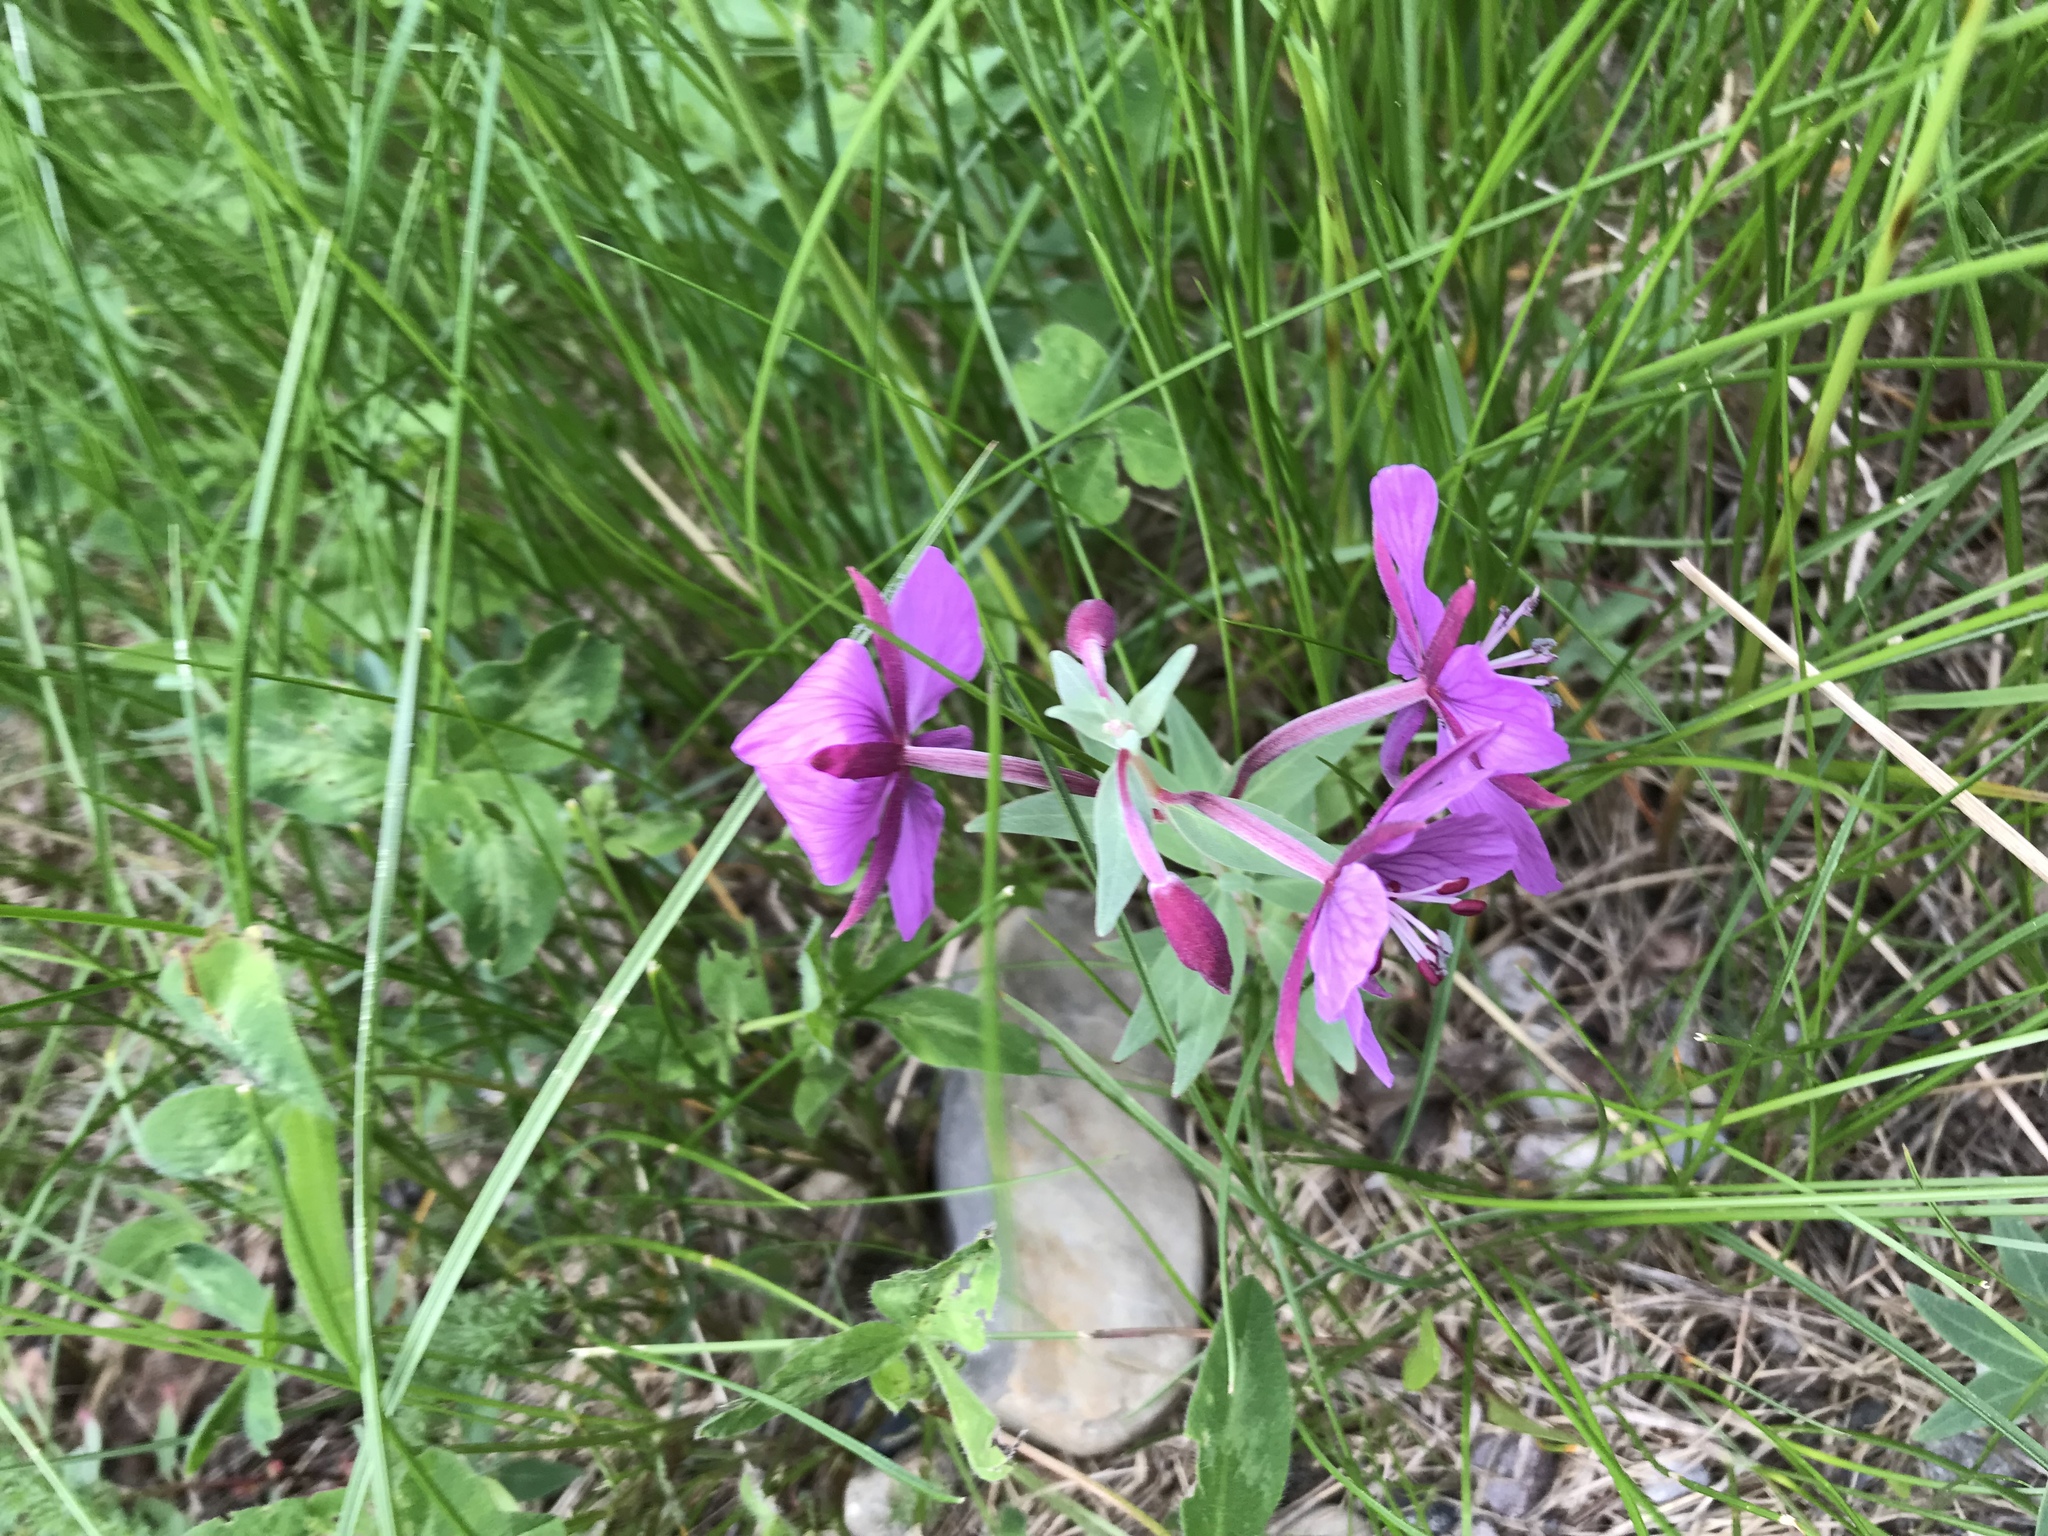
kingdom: Plantae
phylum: Tracheophyta
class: Magnoliopsida
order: Myrtales
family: Onagraceae
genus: Chamaenerion
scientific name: Chamaenerion latifolium
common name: Dwarf fireweed
